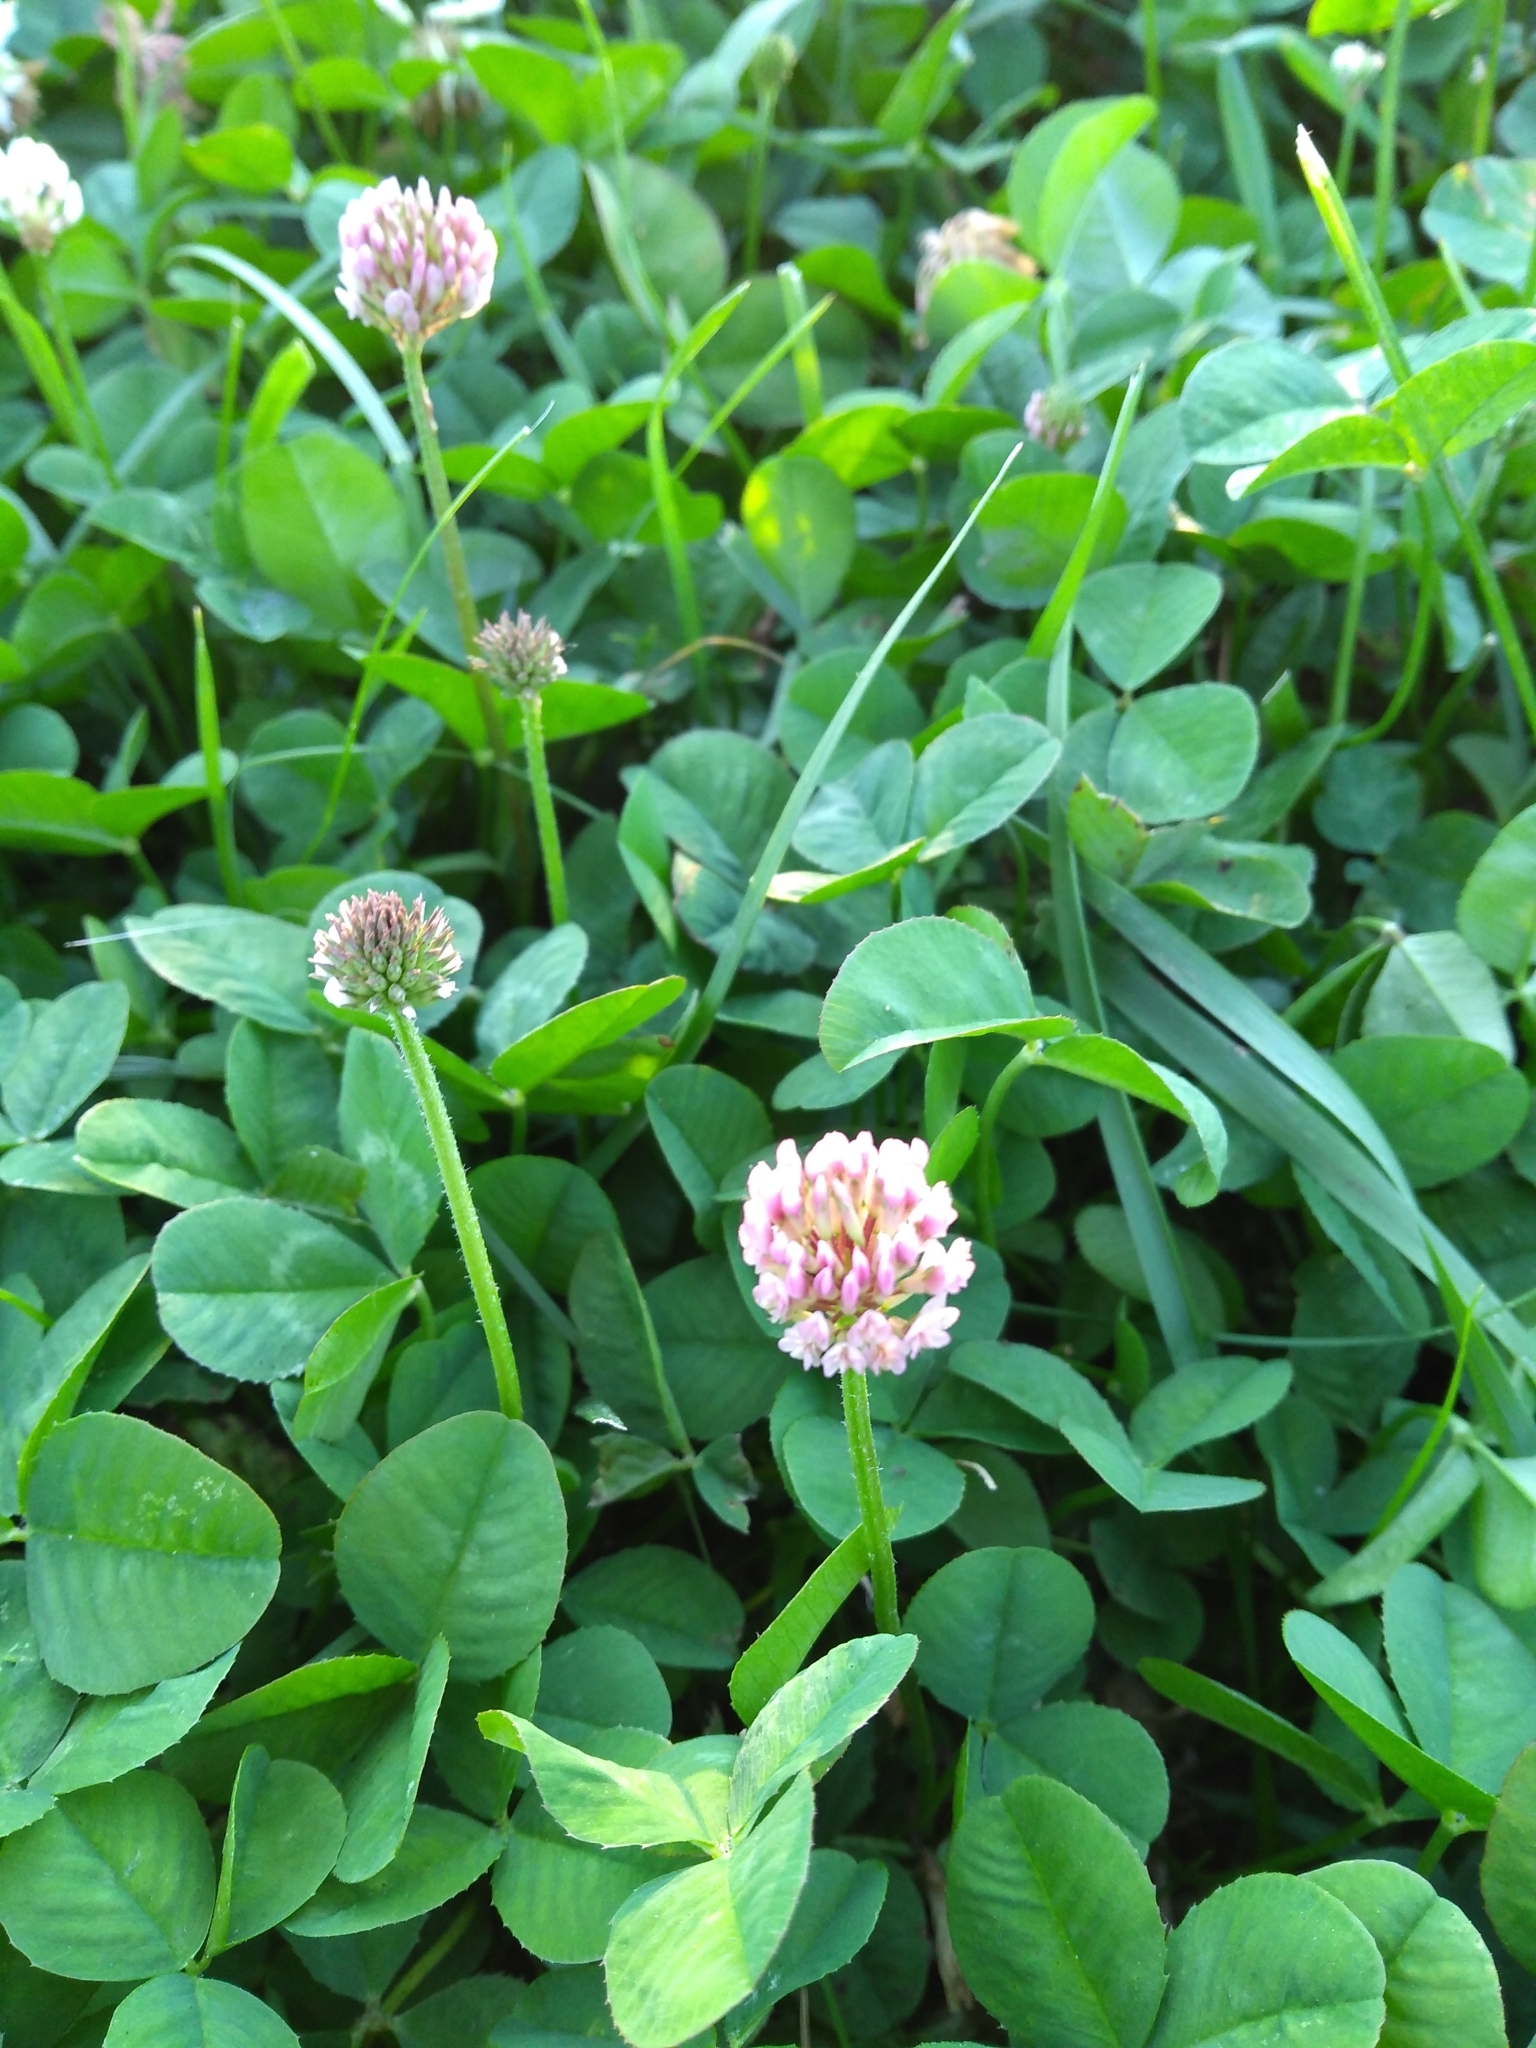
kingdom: Plantae
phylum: Tracheophyta
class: Magnoliopsida
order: Fabales
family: Fabaceae
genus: Trifolium
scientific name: Trifolium repens
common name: White clover
